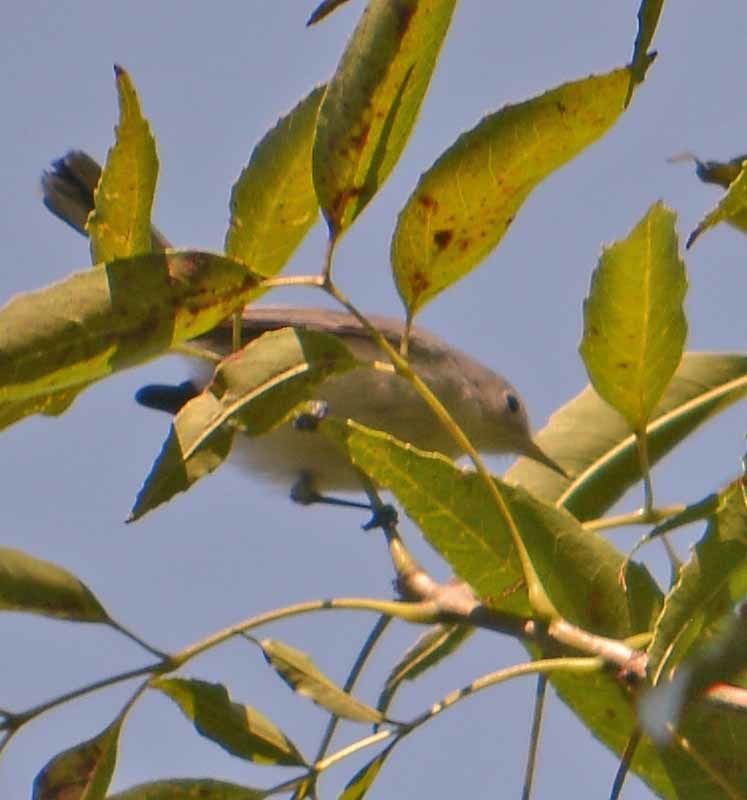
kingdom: Animalia
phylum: Chordata
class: Aves
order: Passeriformes
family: Polioptilidae
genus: Polioptila
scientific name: Polioptila caerulea
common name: Blue-gray gnatcatcher
